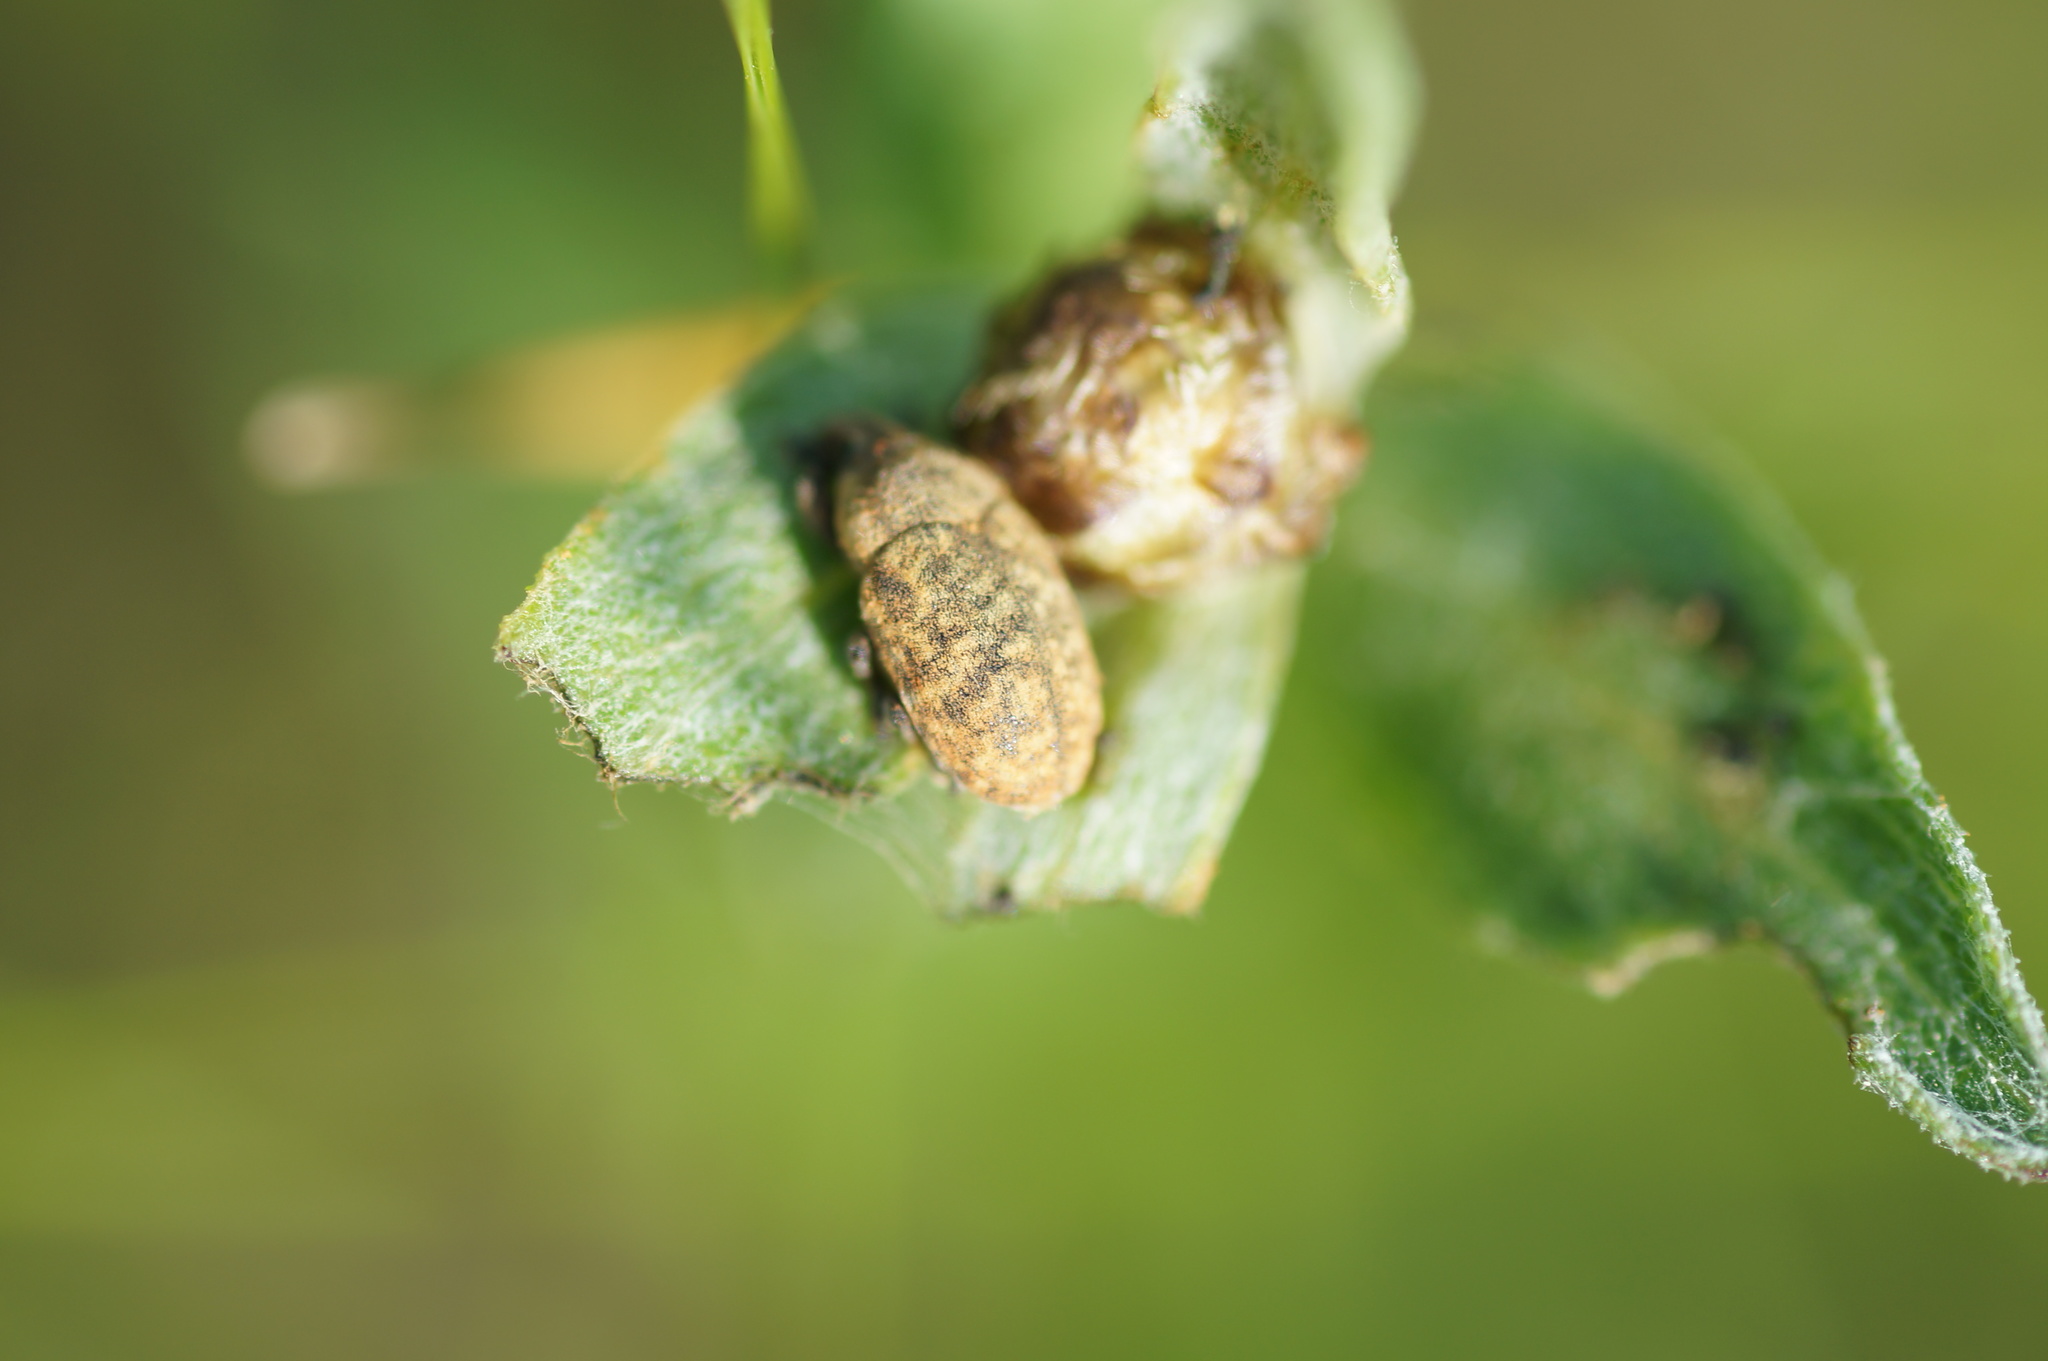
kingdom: Animalia
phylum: Arthropoda
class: Insecta
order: Coleoptera
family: Curculionidae
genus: Larinus
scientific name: Larinus obtusus
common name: Weevil
